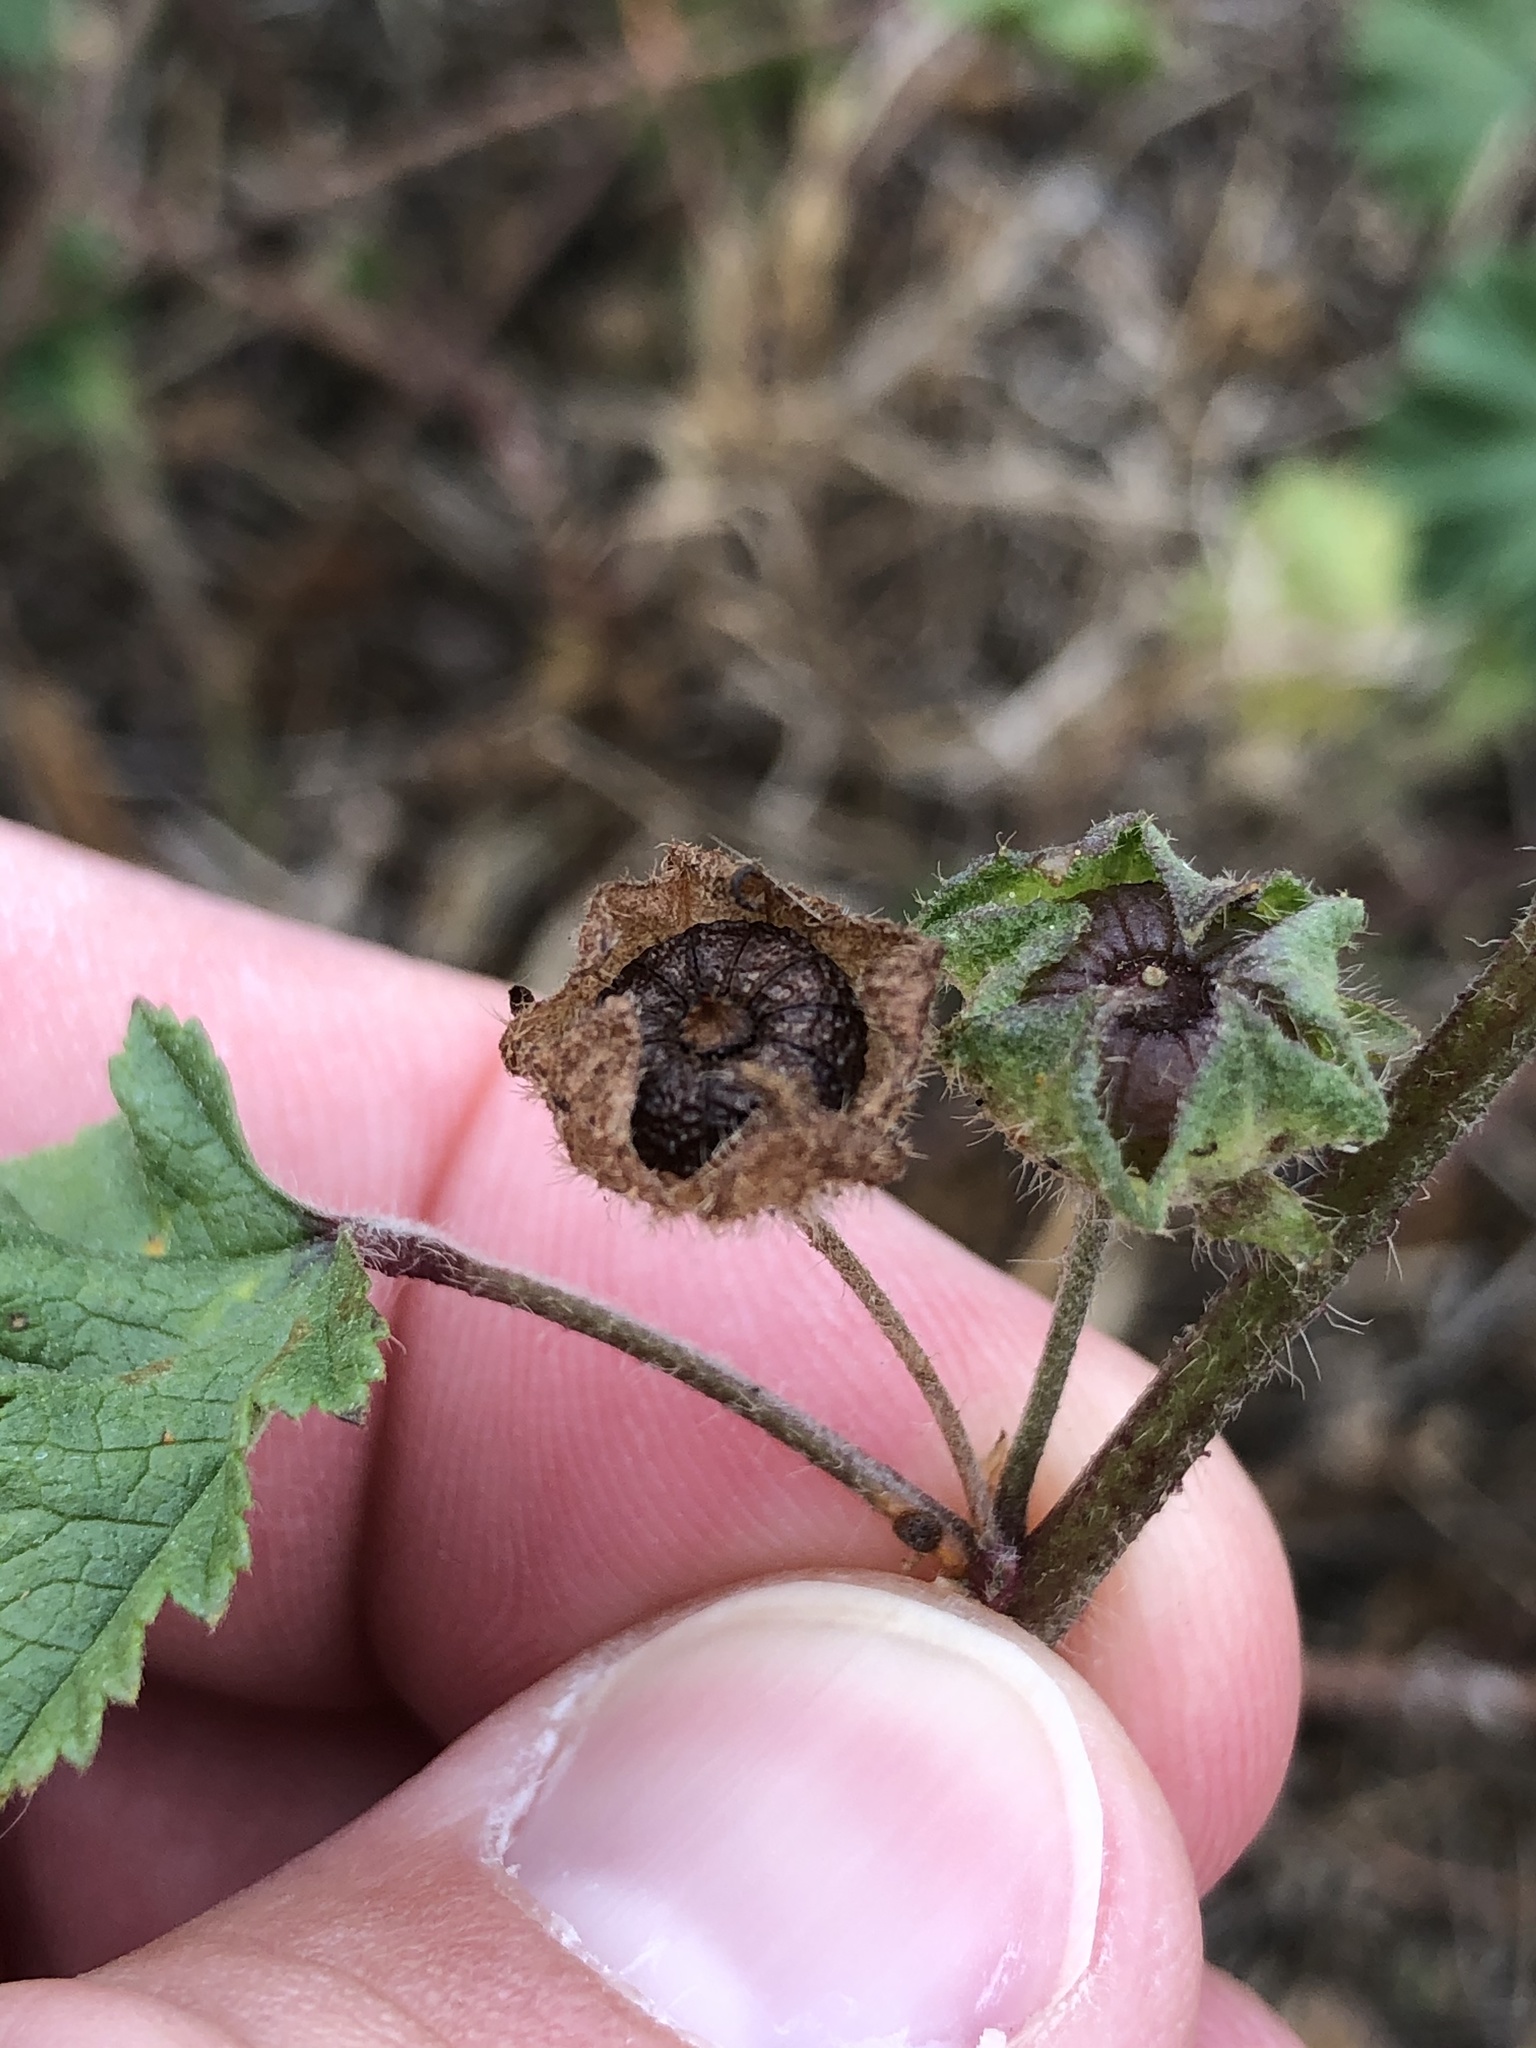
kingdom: Plantae
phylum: Tracheophyta
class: Magnoliopsida
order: Malvales
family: Malvaceae
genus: Malva
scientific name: Malva sylvestris
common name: Common mallow
